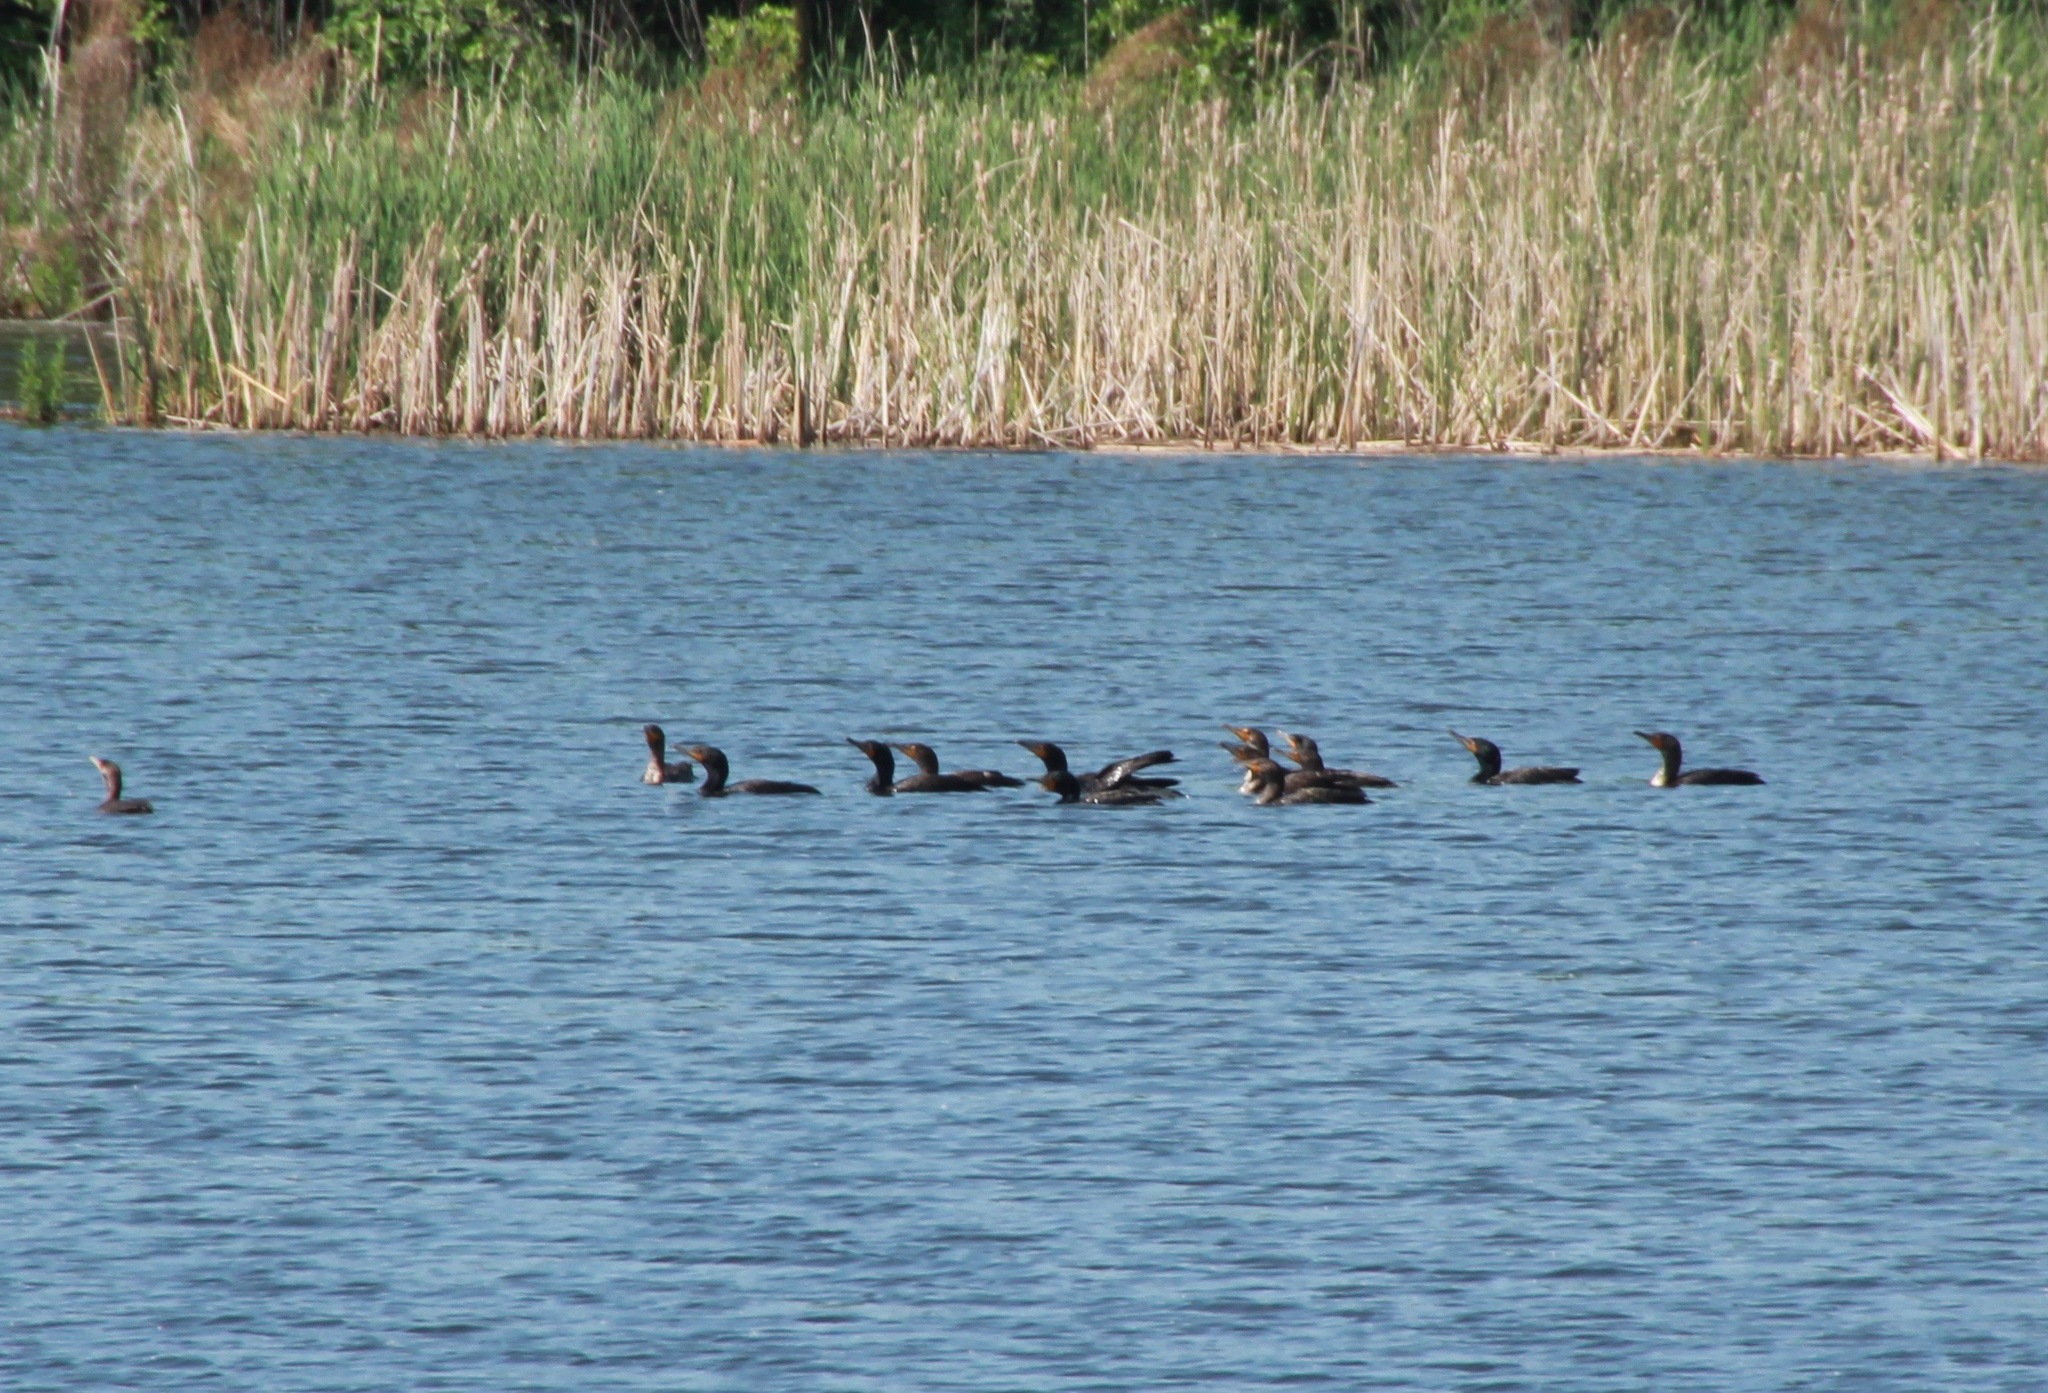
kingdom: Animalia
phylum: Chordata
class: Aves
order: Suliformes
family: Phalacrocoracidae
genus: Phalacrocorax
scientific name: Phalacrocorax auritus
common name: Double-crested cormorant
